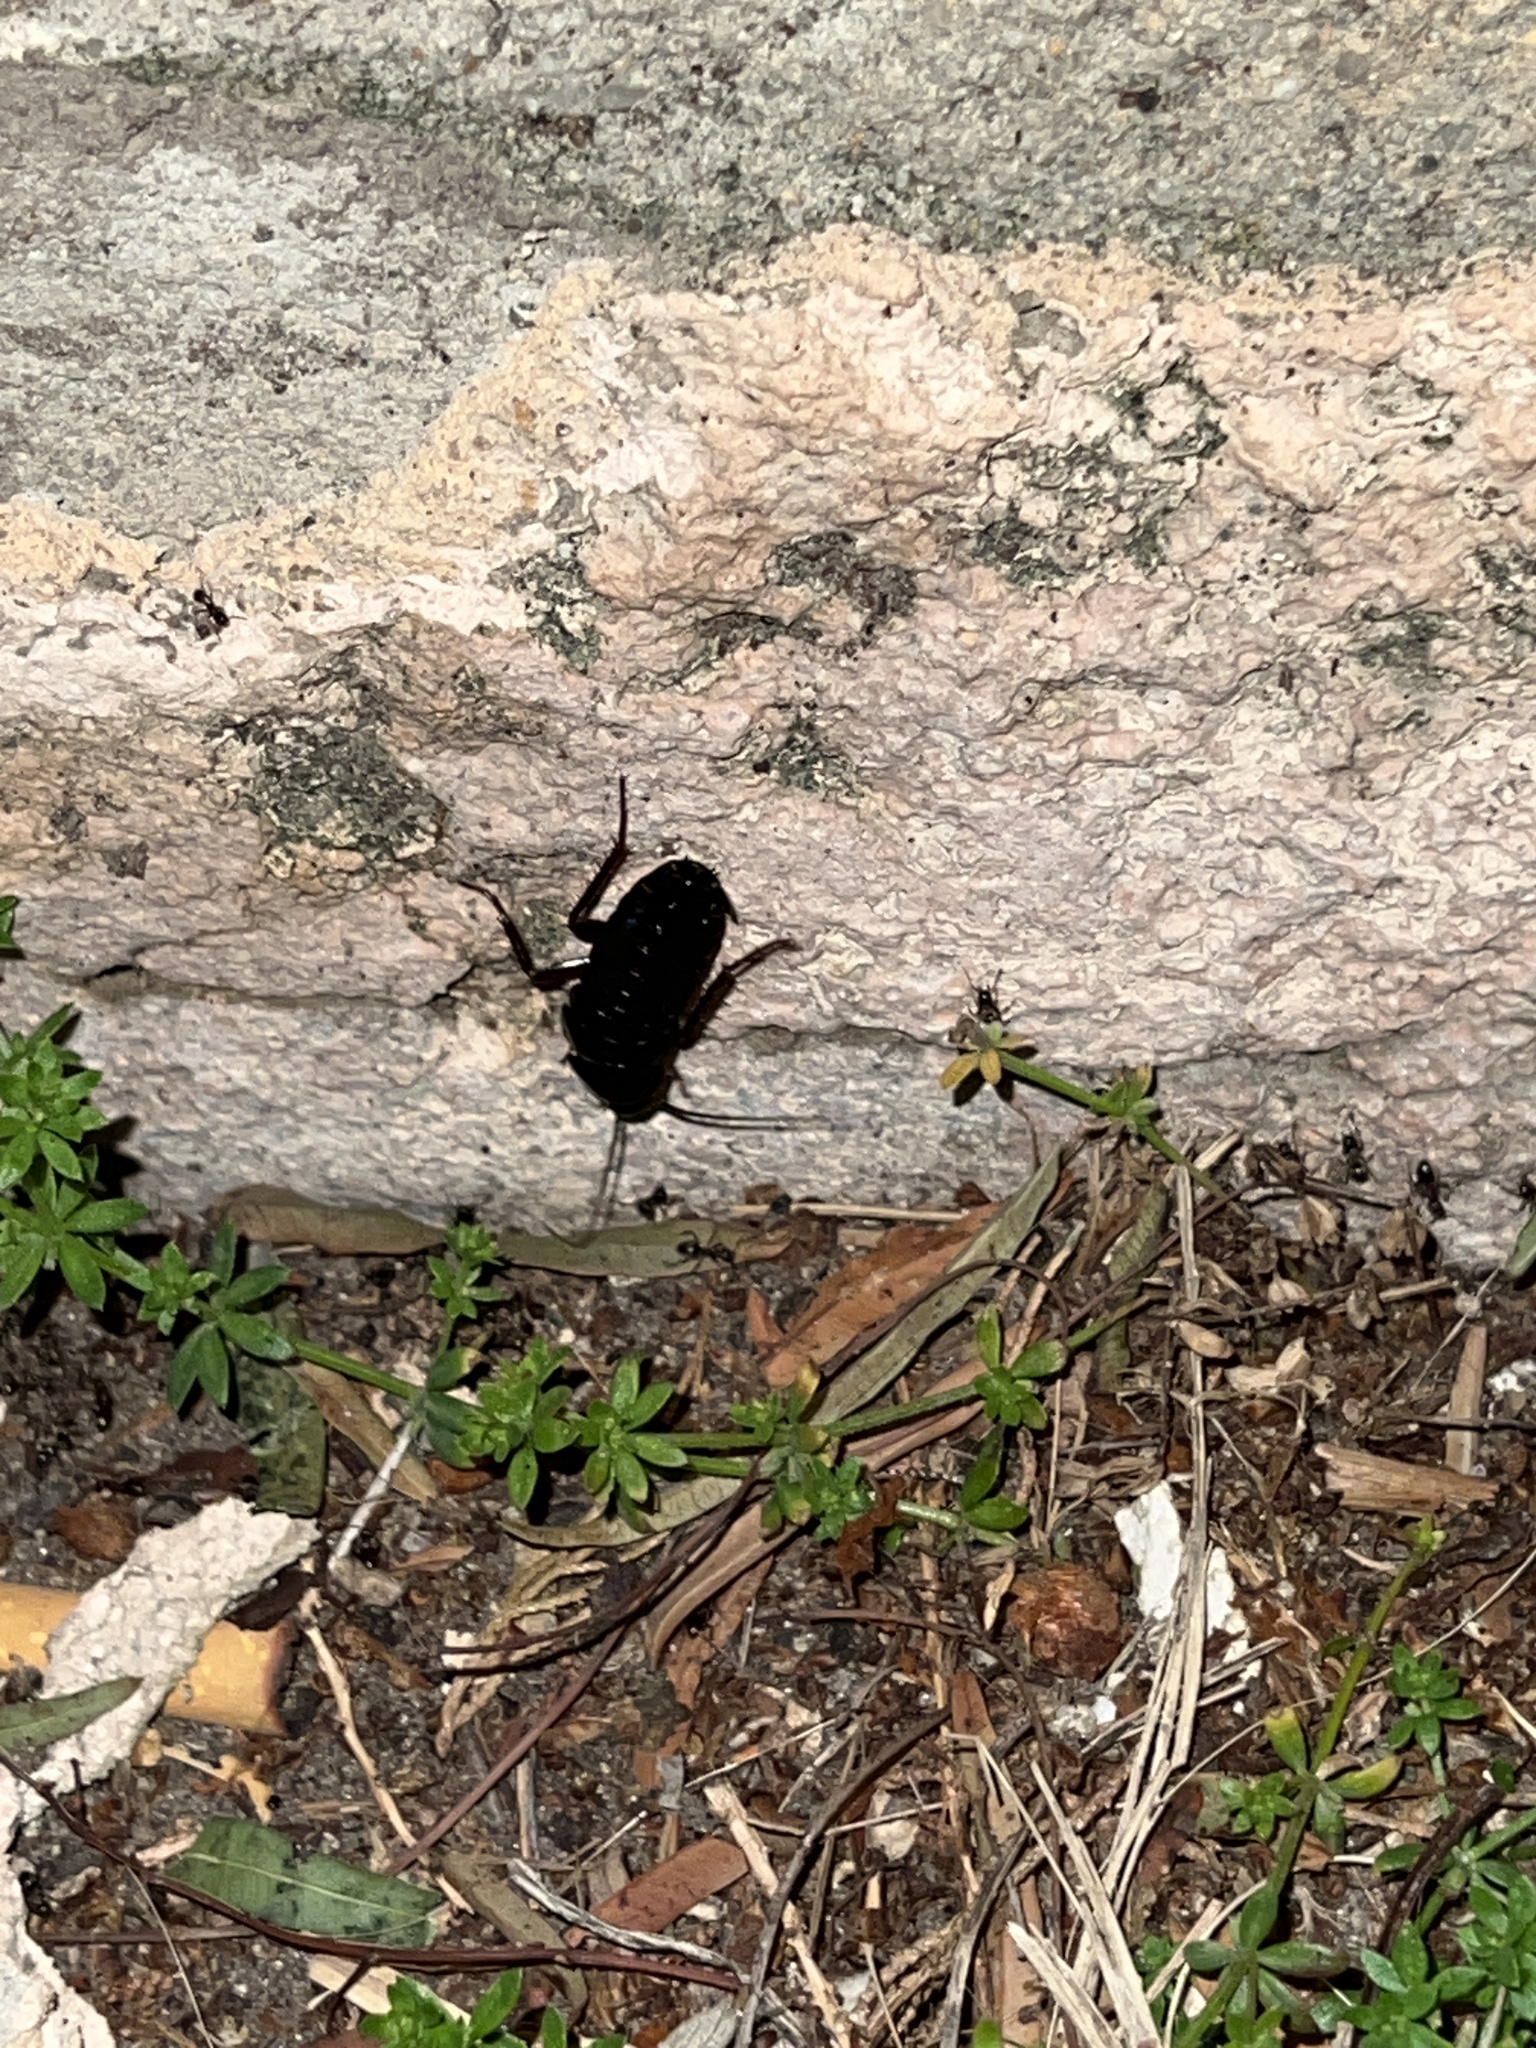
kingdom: Animalia
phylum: Arthropoda
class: Insecta
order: Blattodea
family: Blattidae
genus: Blatta
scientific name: Blatta orientalis
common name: Oriental cockroach
